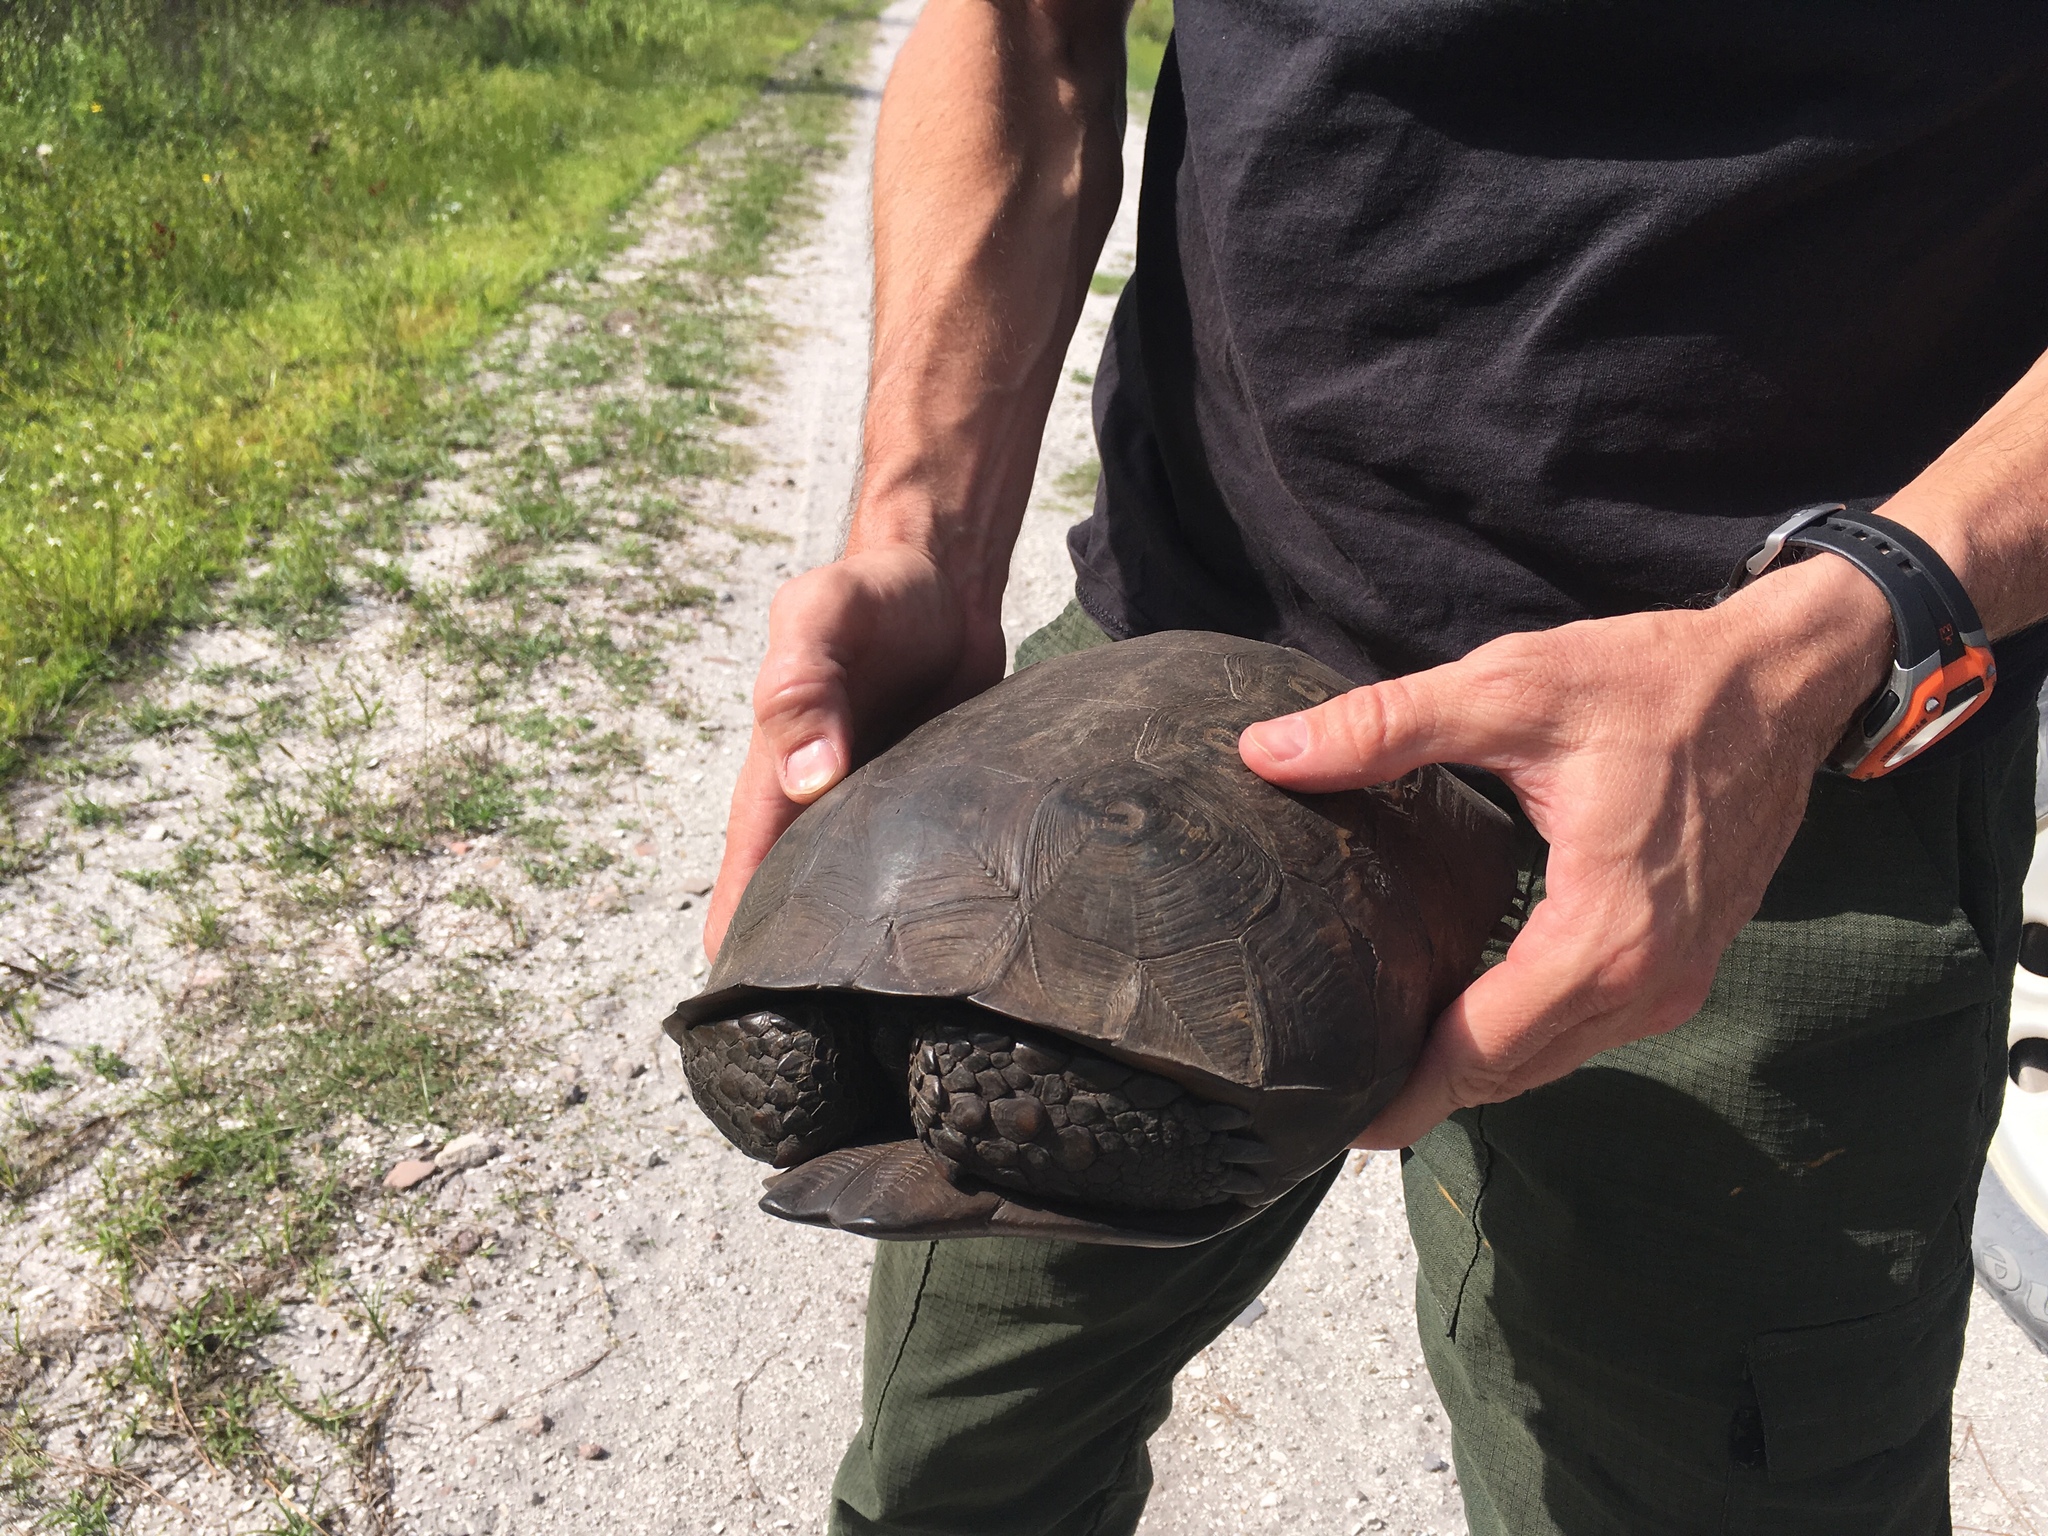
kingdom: Animalia
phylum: Chordata
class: Testudines
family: Testudinidae
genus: Gopherus
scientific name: Gopherus polyphemus
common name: Florida gopher tortoise
